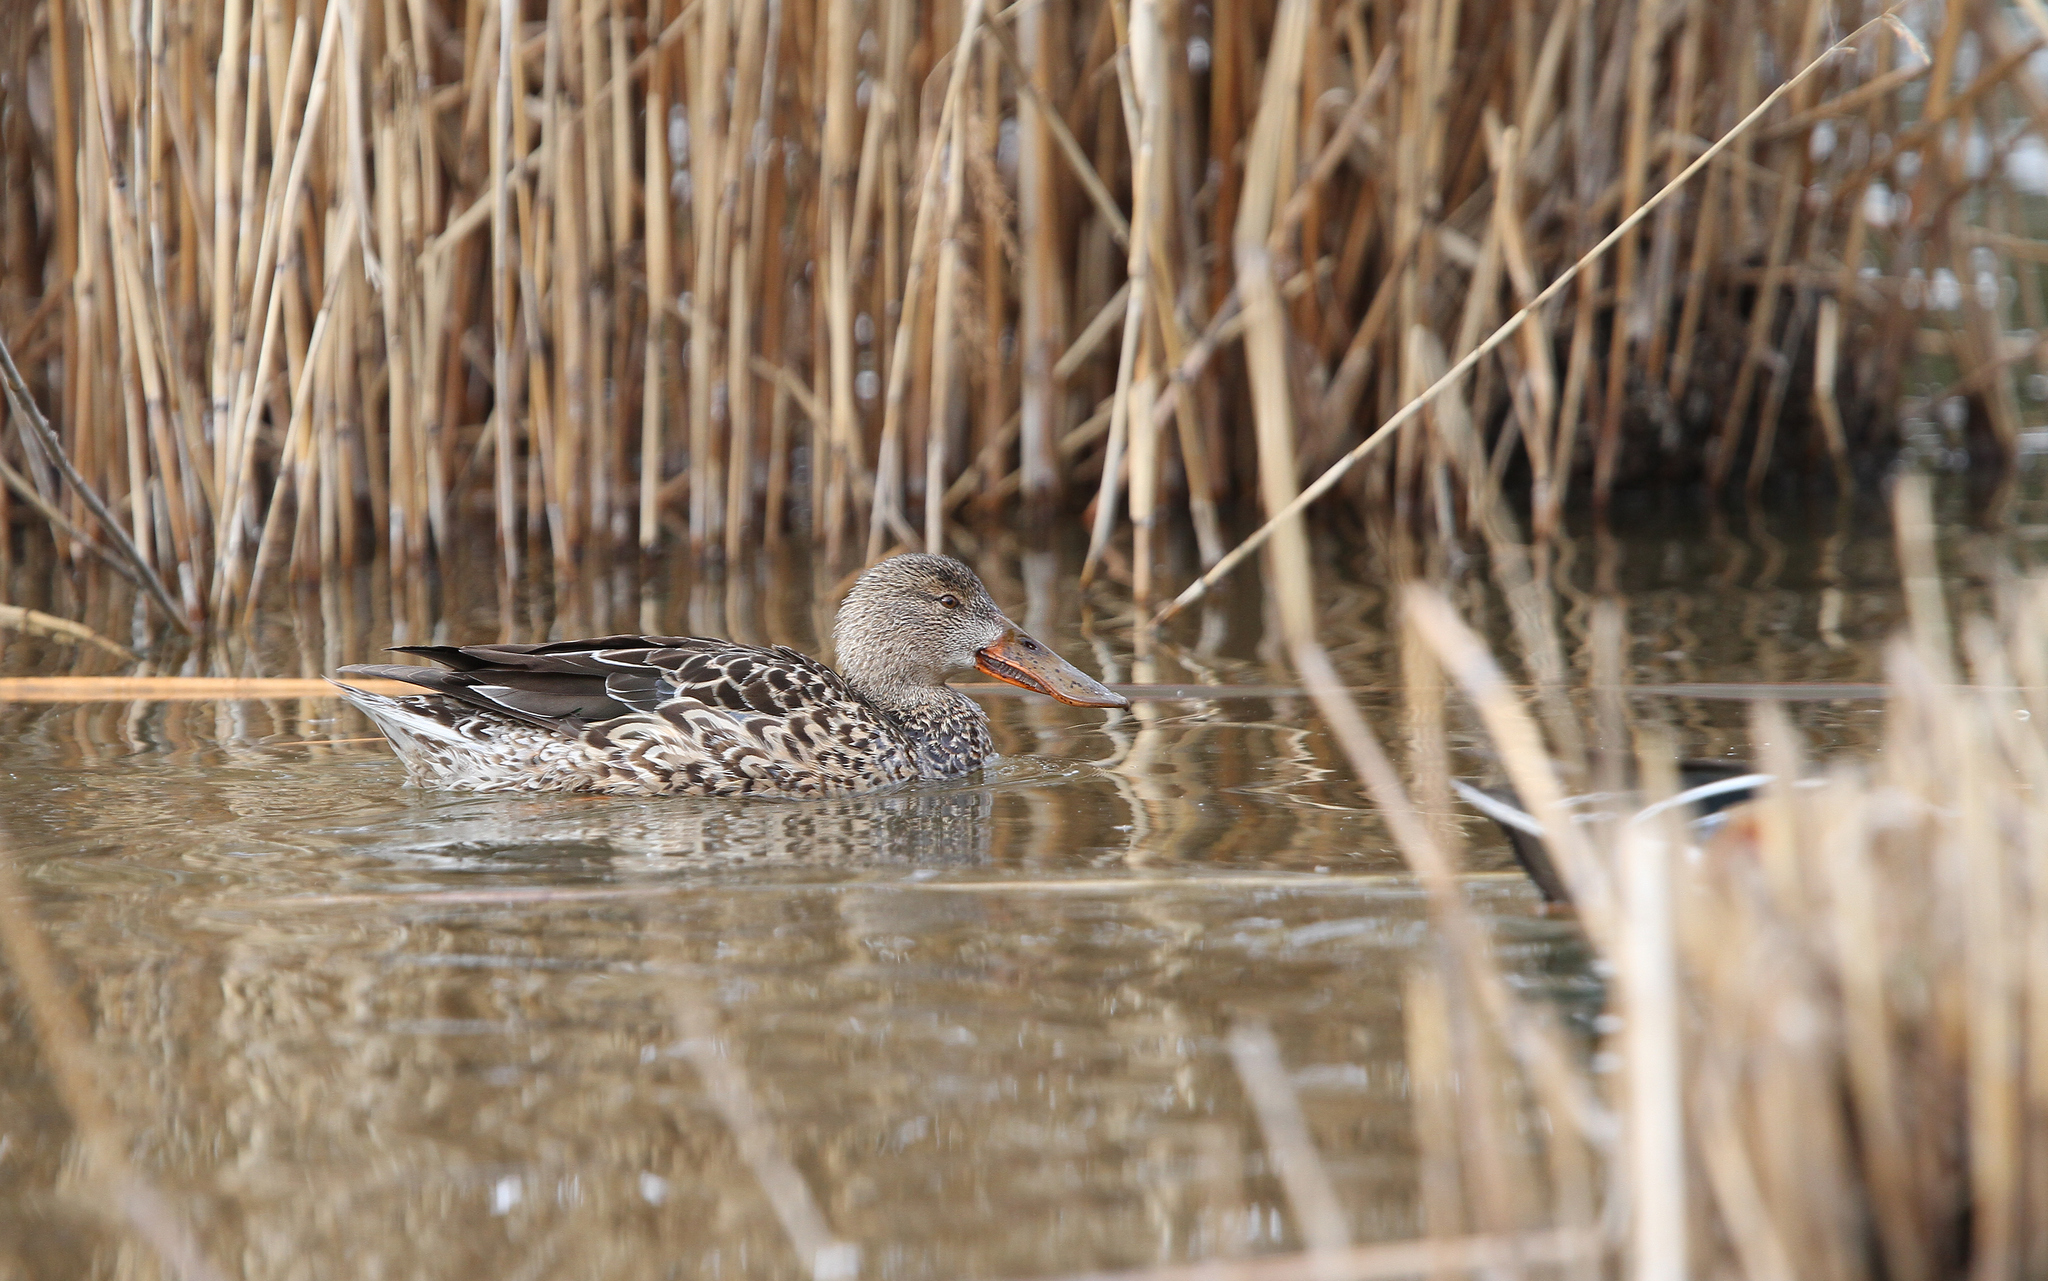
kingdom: Animalia
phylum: Chordata
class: Aves
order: Anseriformes
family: Anatidae
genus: Spatula
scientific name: Spatula clypeata
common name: Northern shoveler
